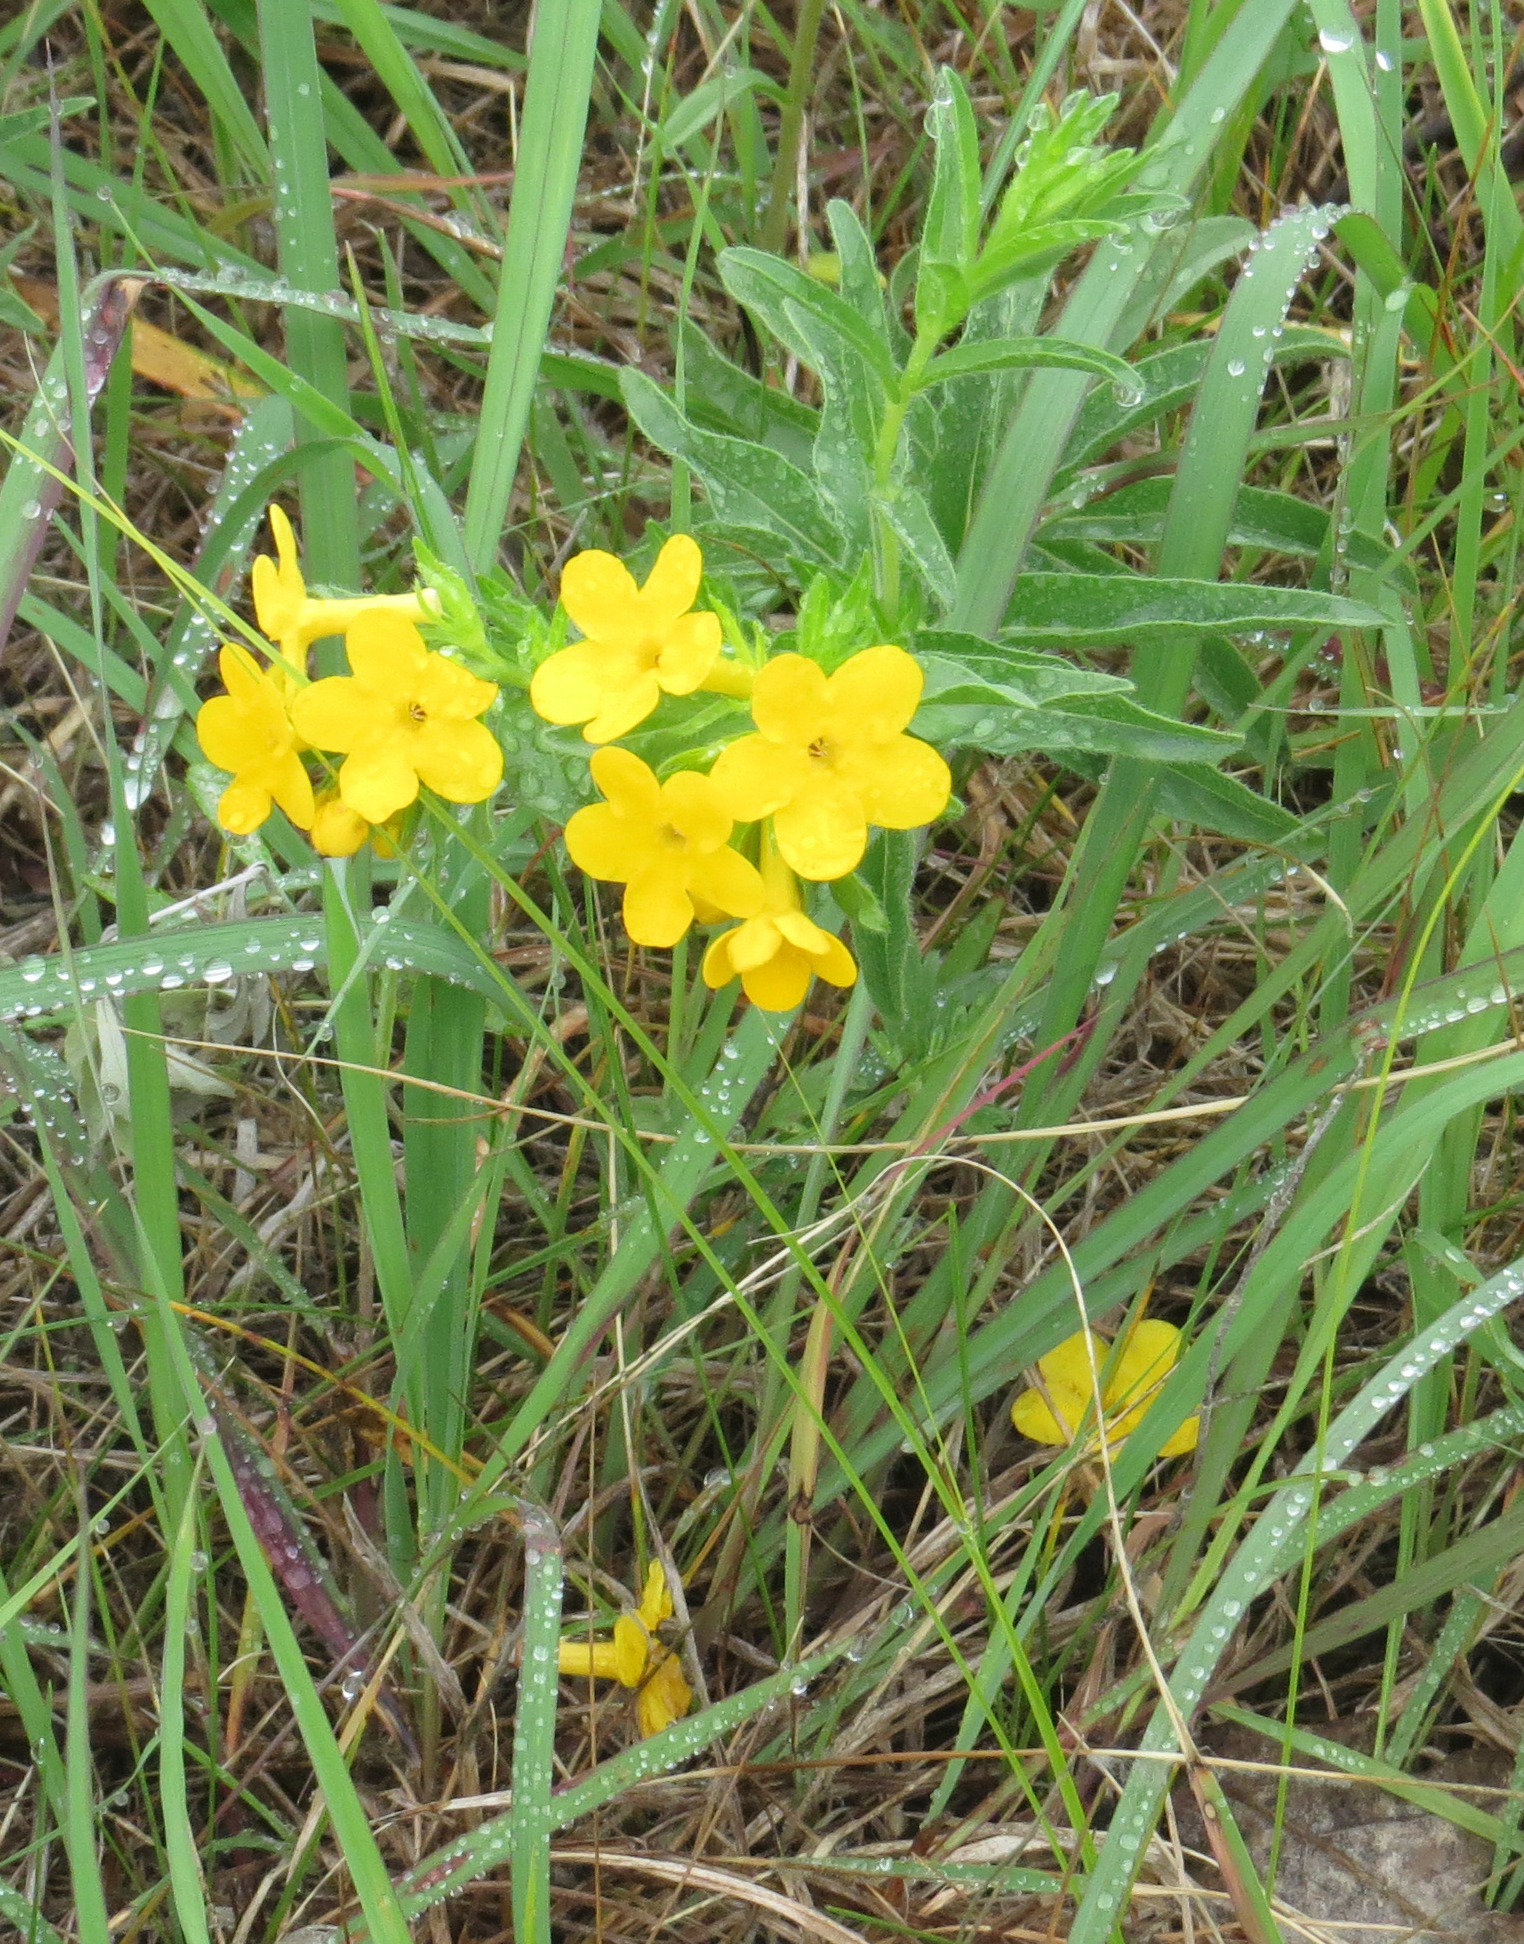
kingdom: Plantae
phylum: Tracheophyta
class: Magnoliopsida
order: Boraginales
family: Boraginaceae
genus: Lithospermum
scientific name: Lithospermum caroliniense
